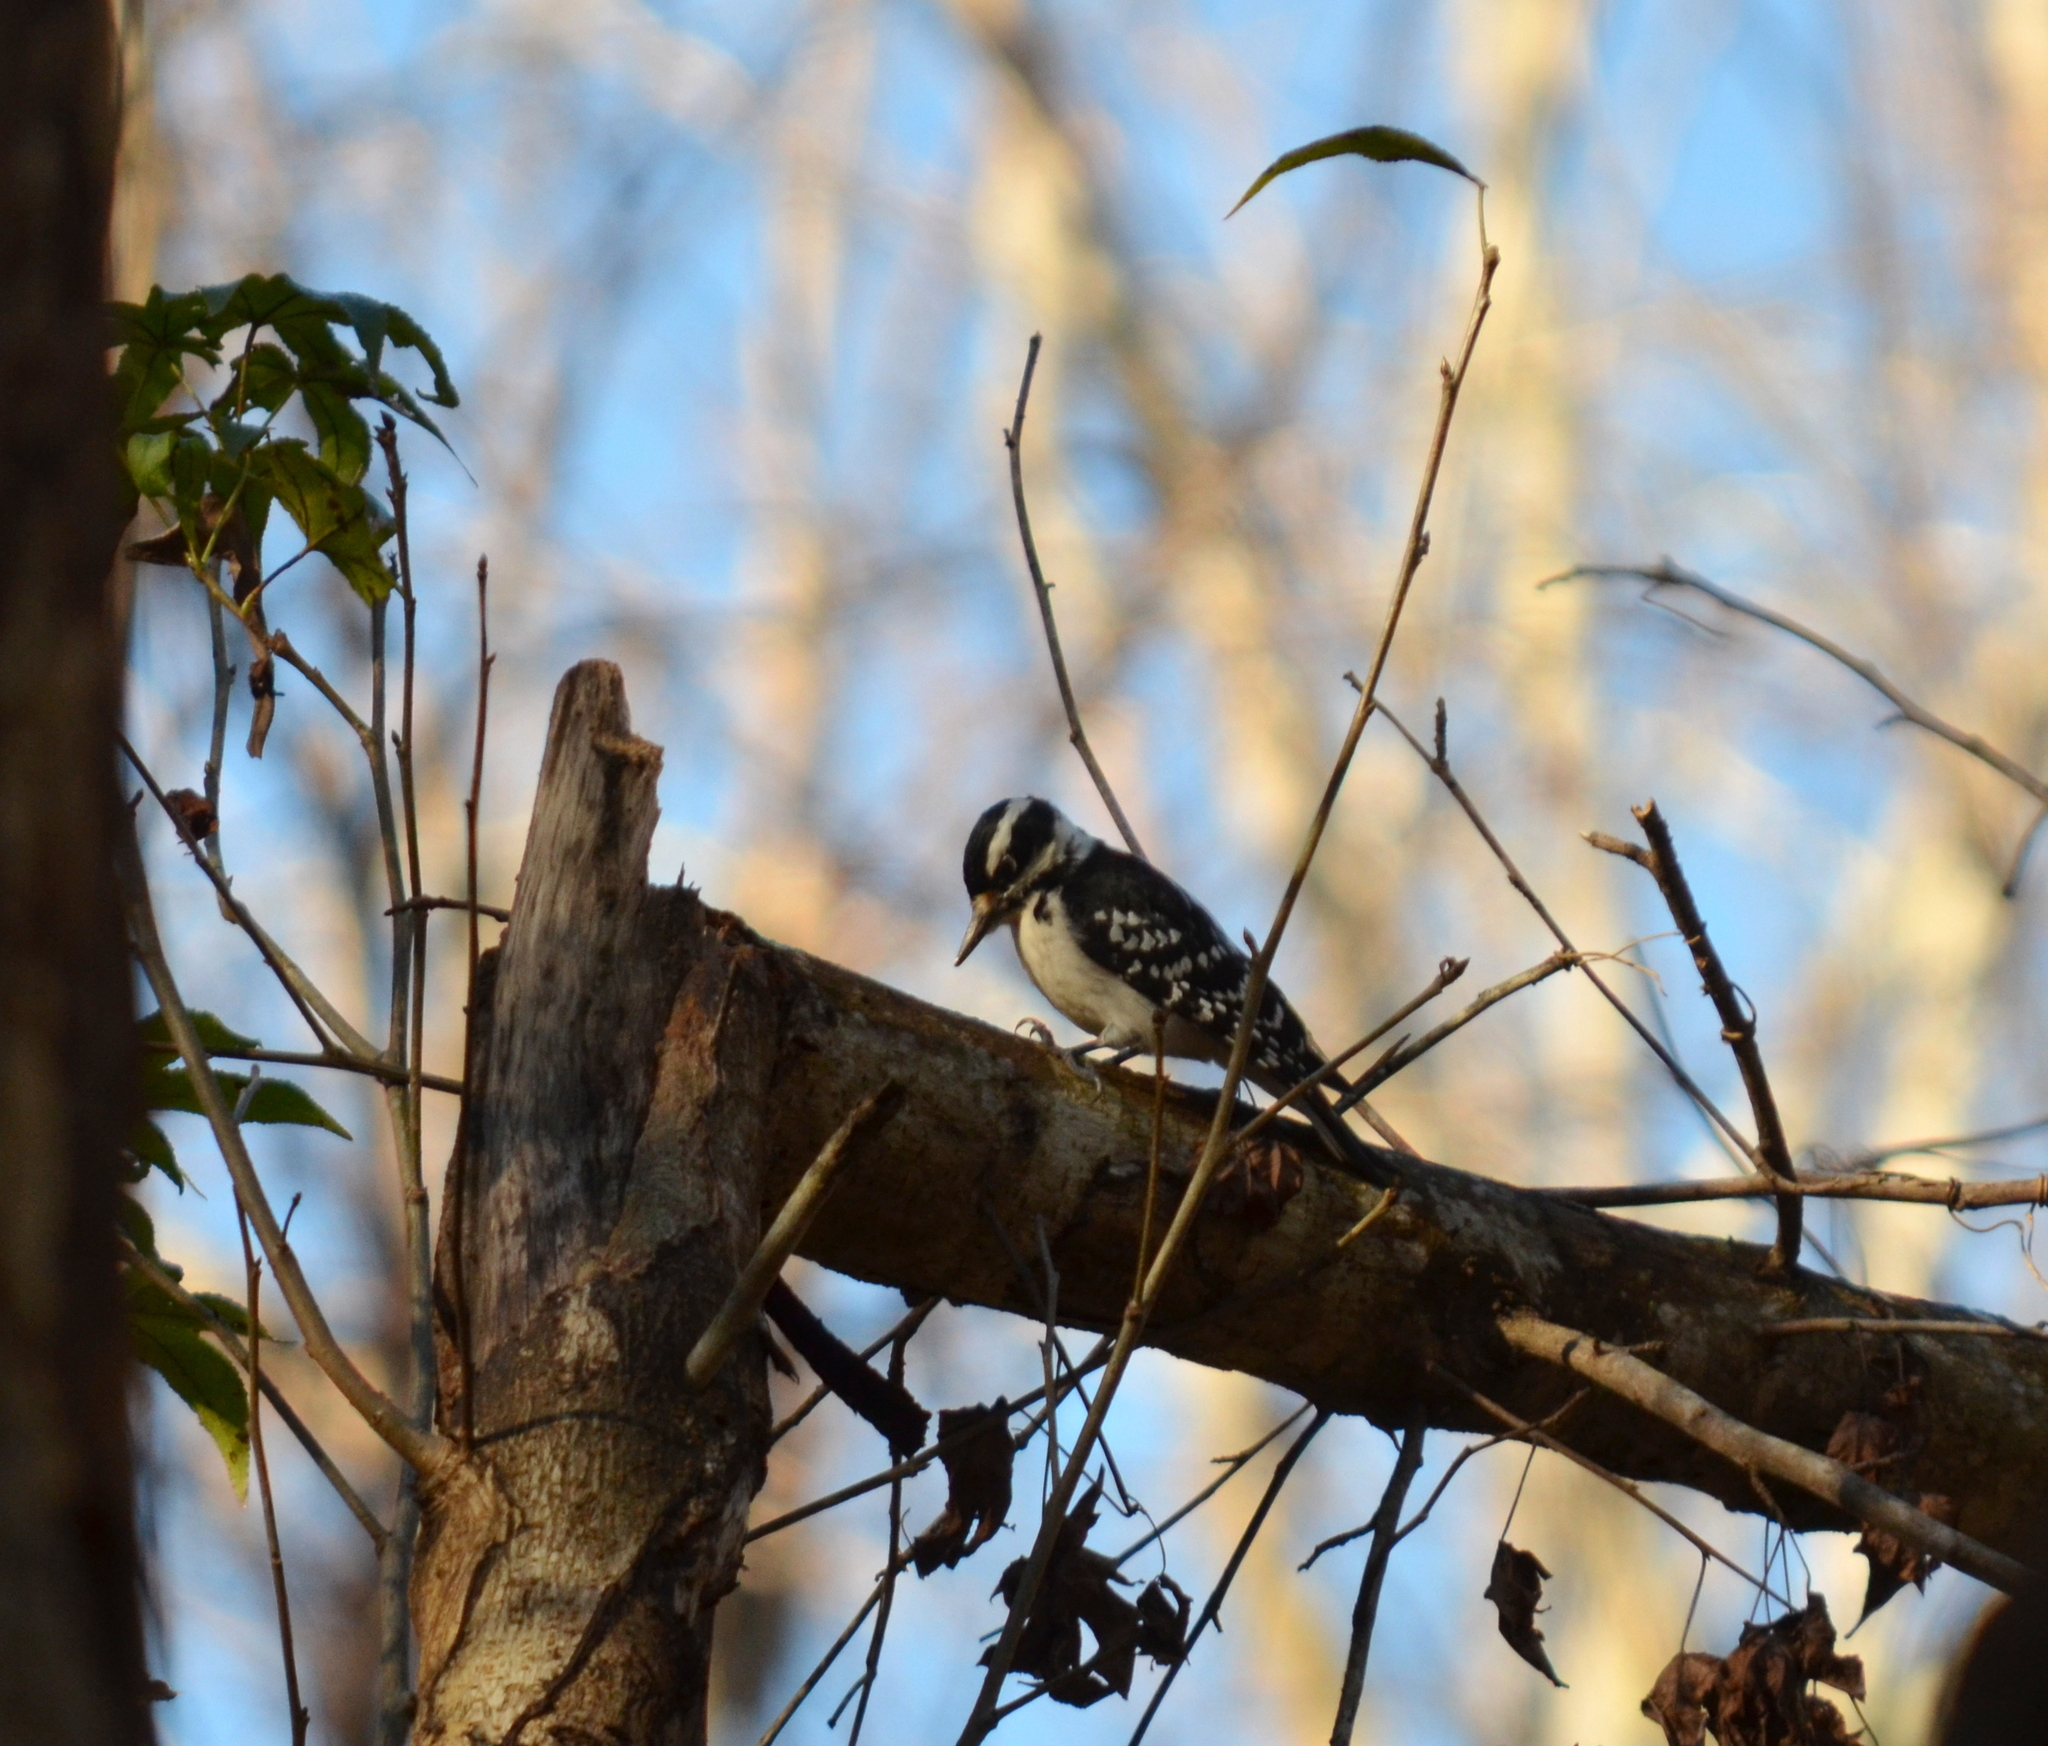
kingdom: Animalia
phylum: Chordata
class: Aves
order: Piciformes
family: Picidae
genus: Leuconotopicus
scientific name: Leuconotopicus villosus
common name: Hairy woodpecker
